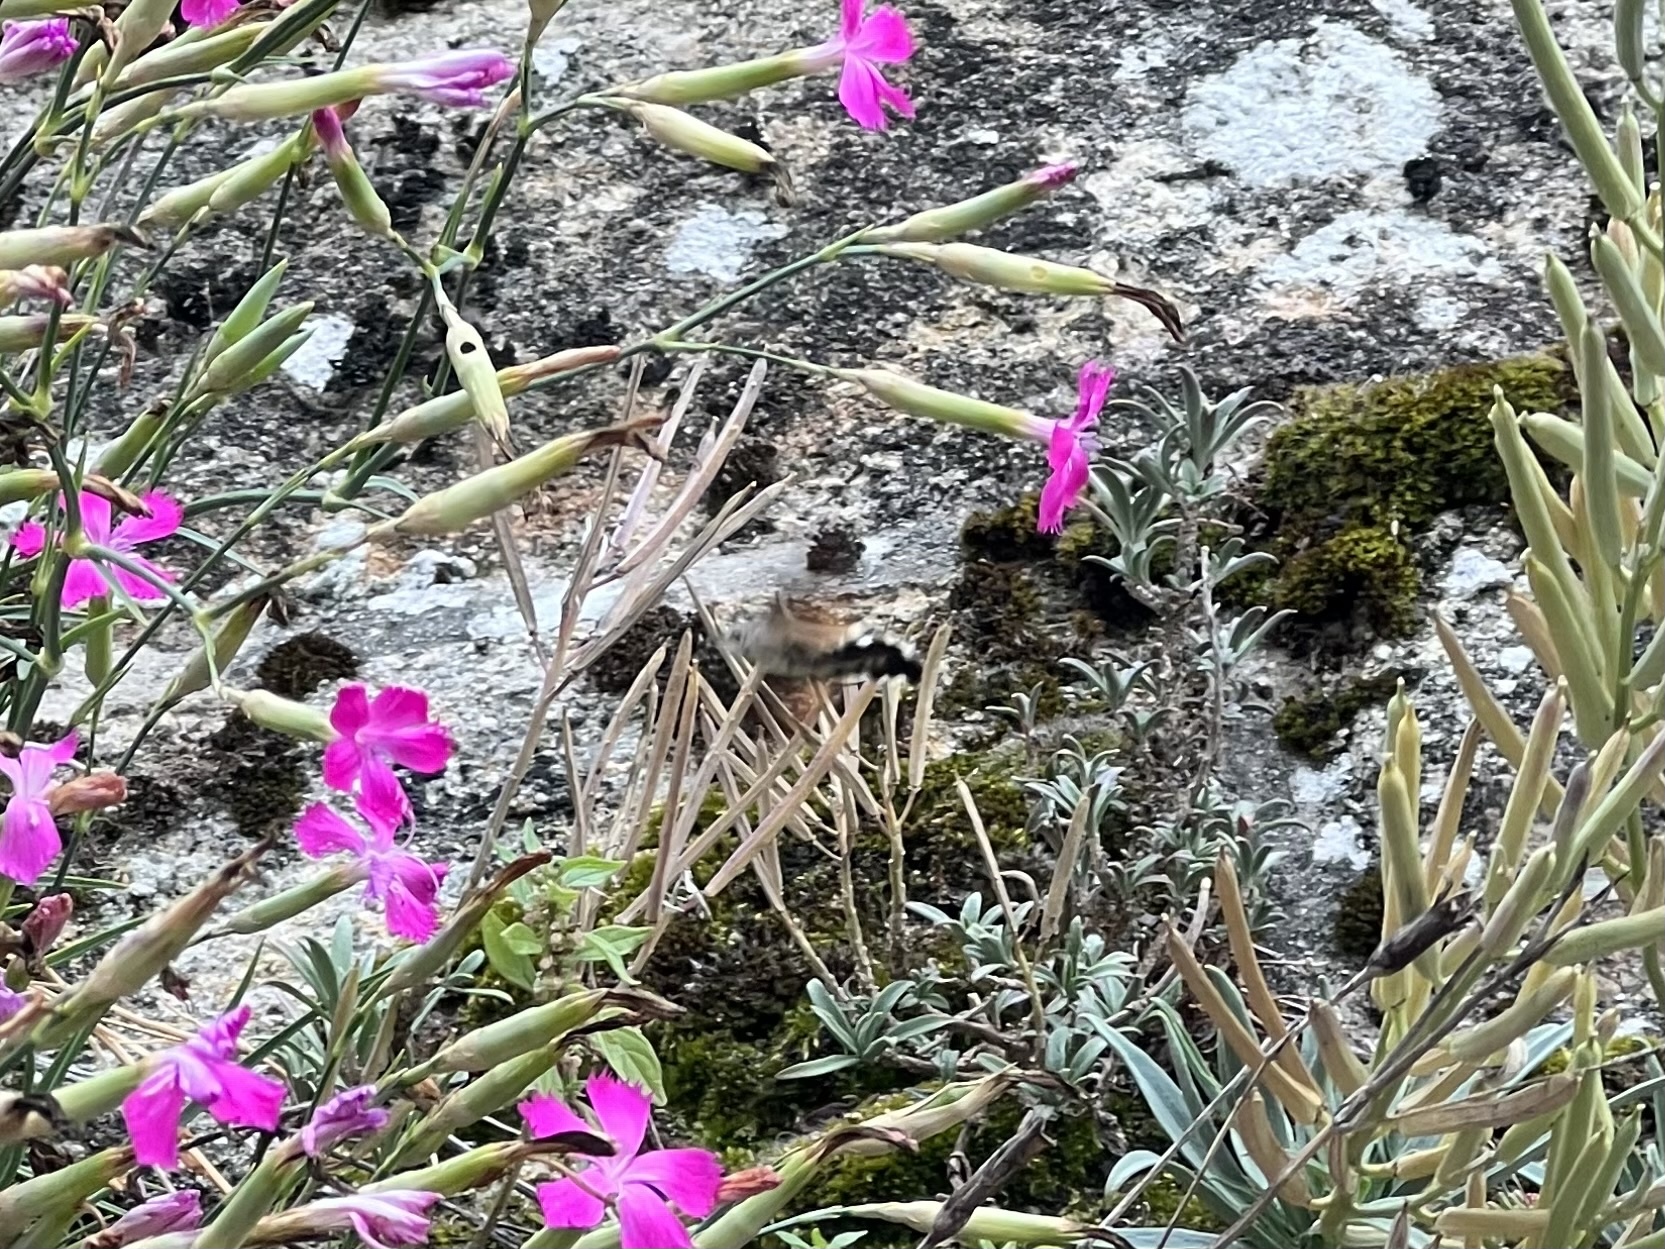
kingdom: Animalia
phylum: Arthropoda
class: Insecta
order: Lepidoptera
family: Sphingidae
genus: Macroglossum
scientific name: Macroglossum stellatarum
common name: Humming-bird hawk-moth
